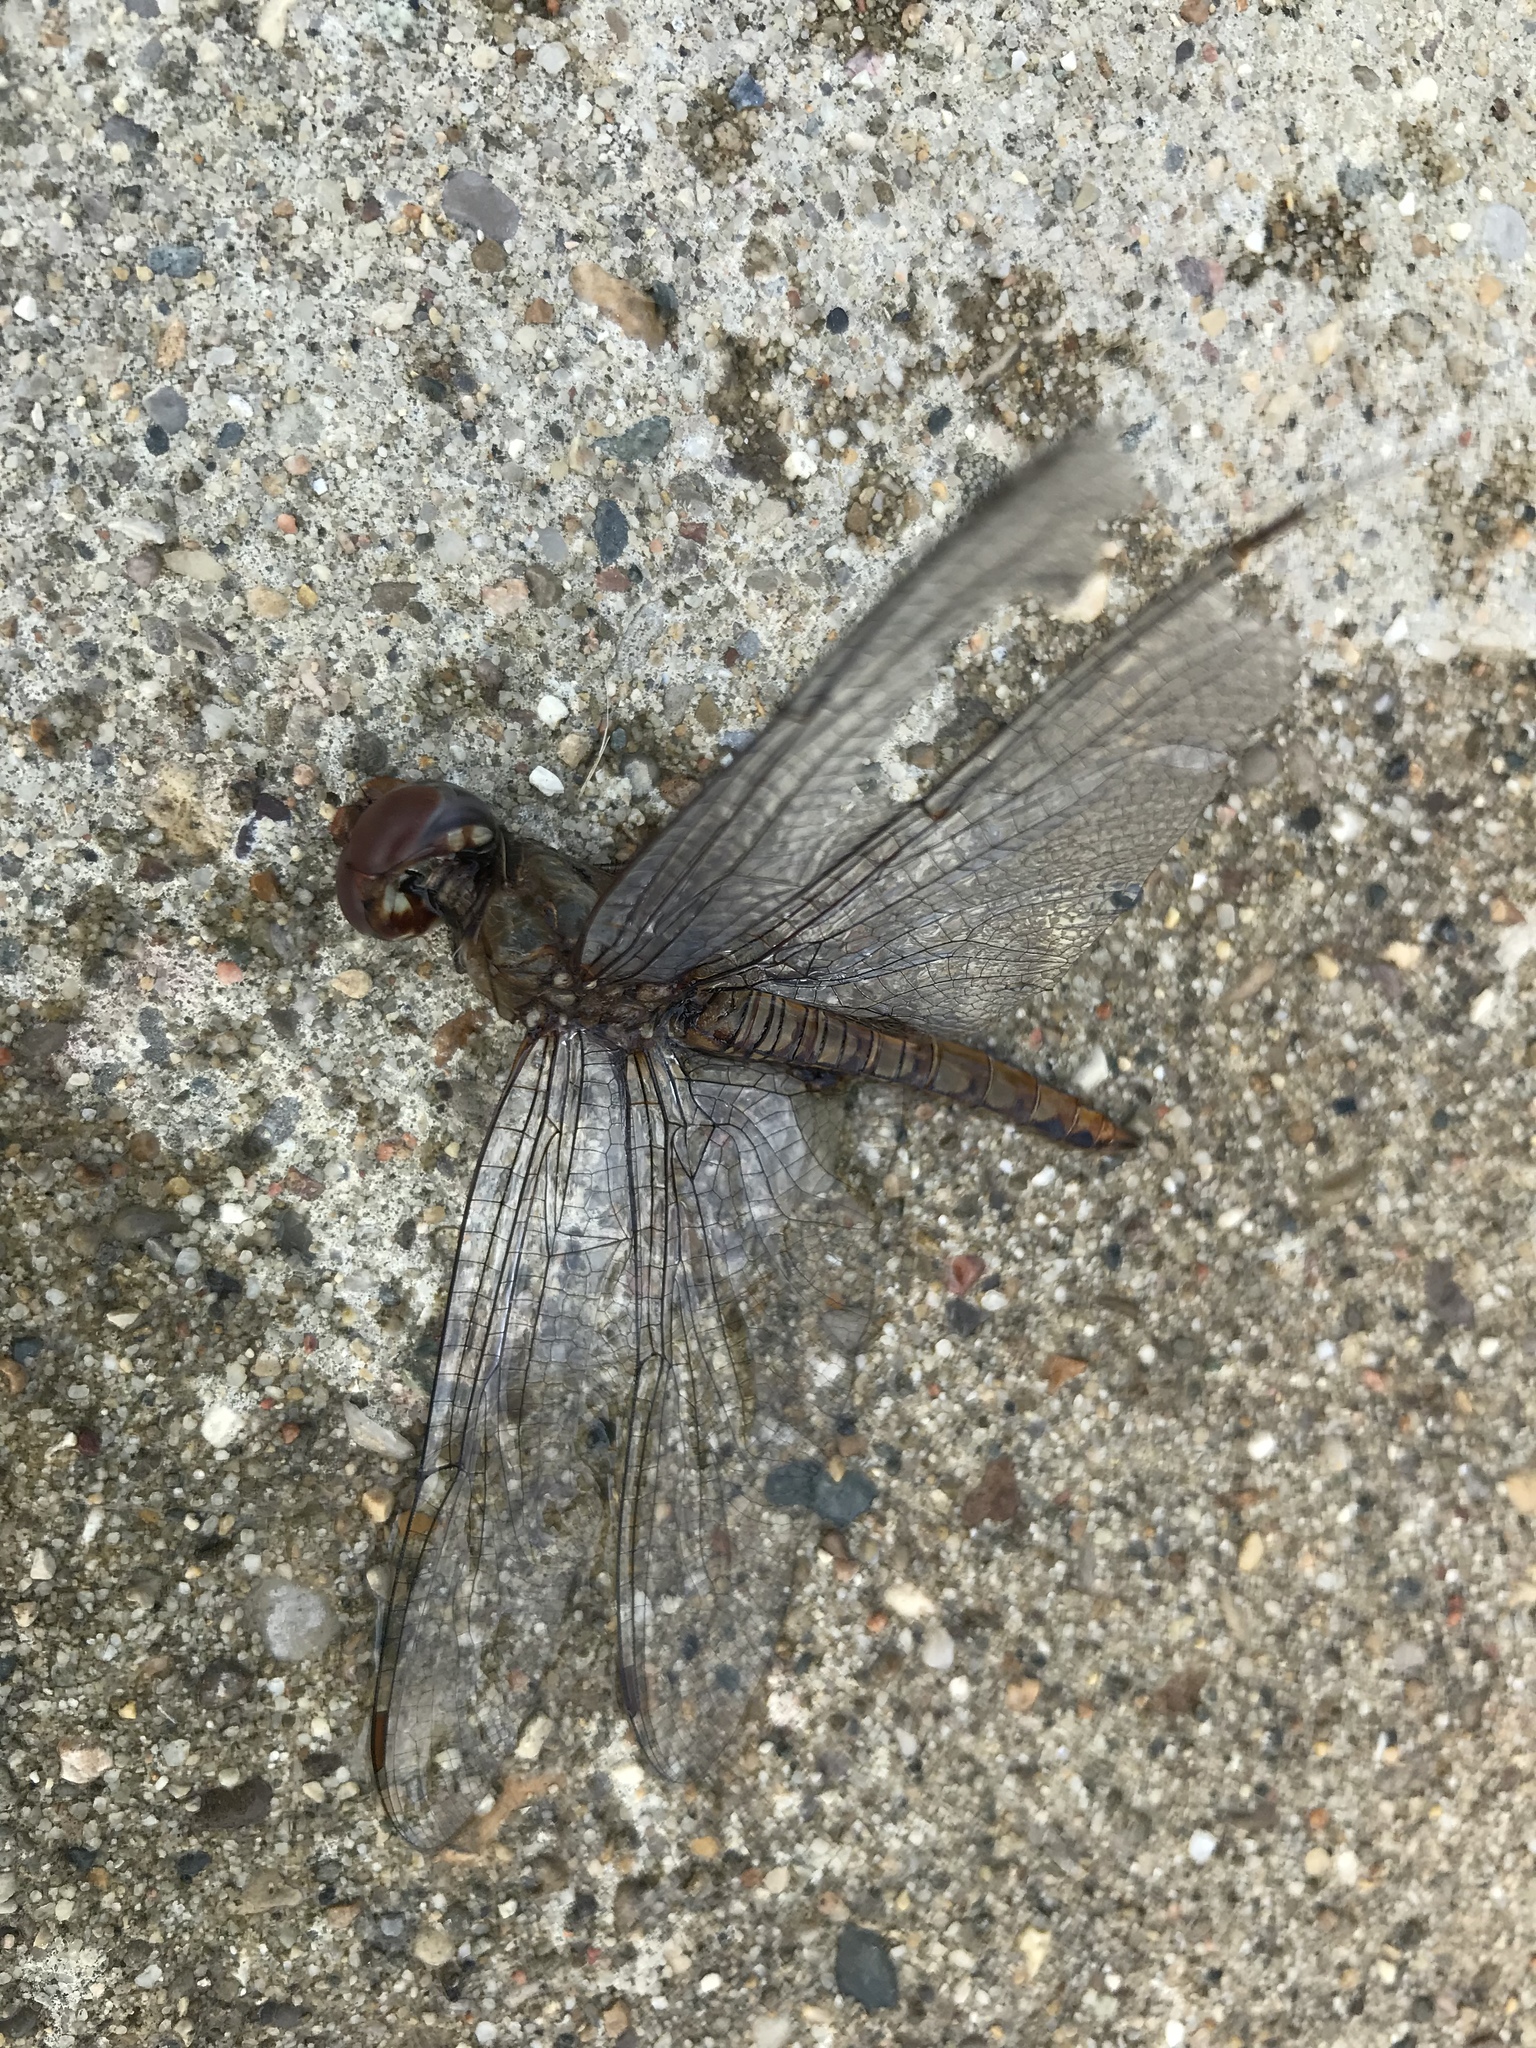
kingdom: Animalia
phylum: Arthropoda
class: Insecta
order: Odonata
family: Libellulidae
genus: Pantala
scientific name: Pantala hymenaea
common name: Spot-winged glider
